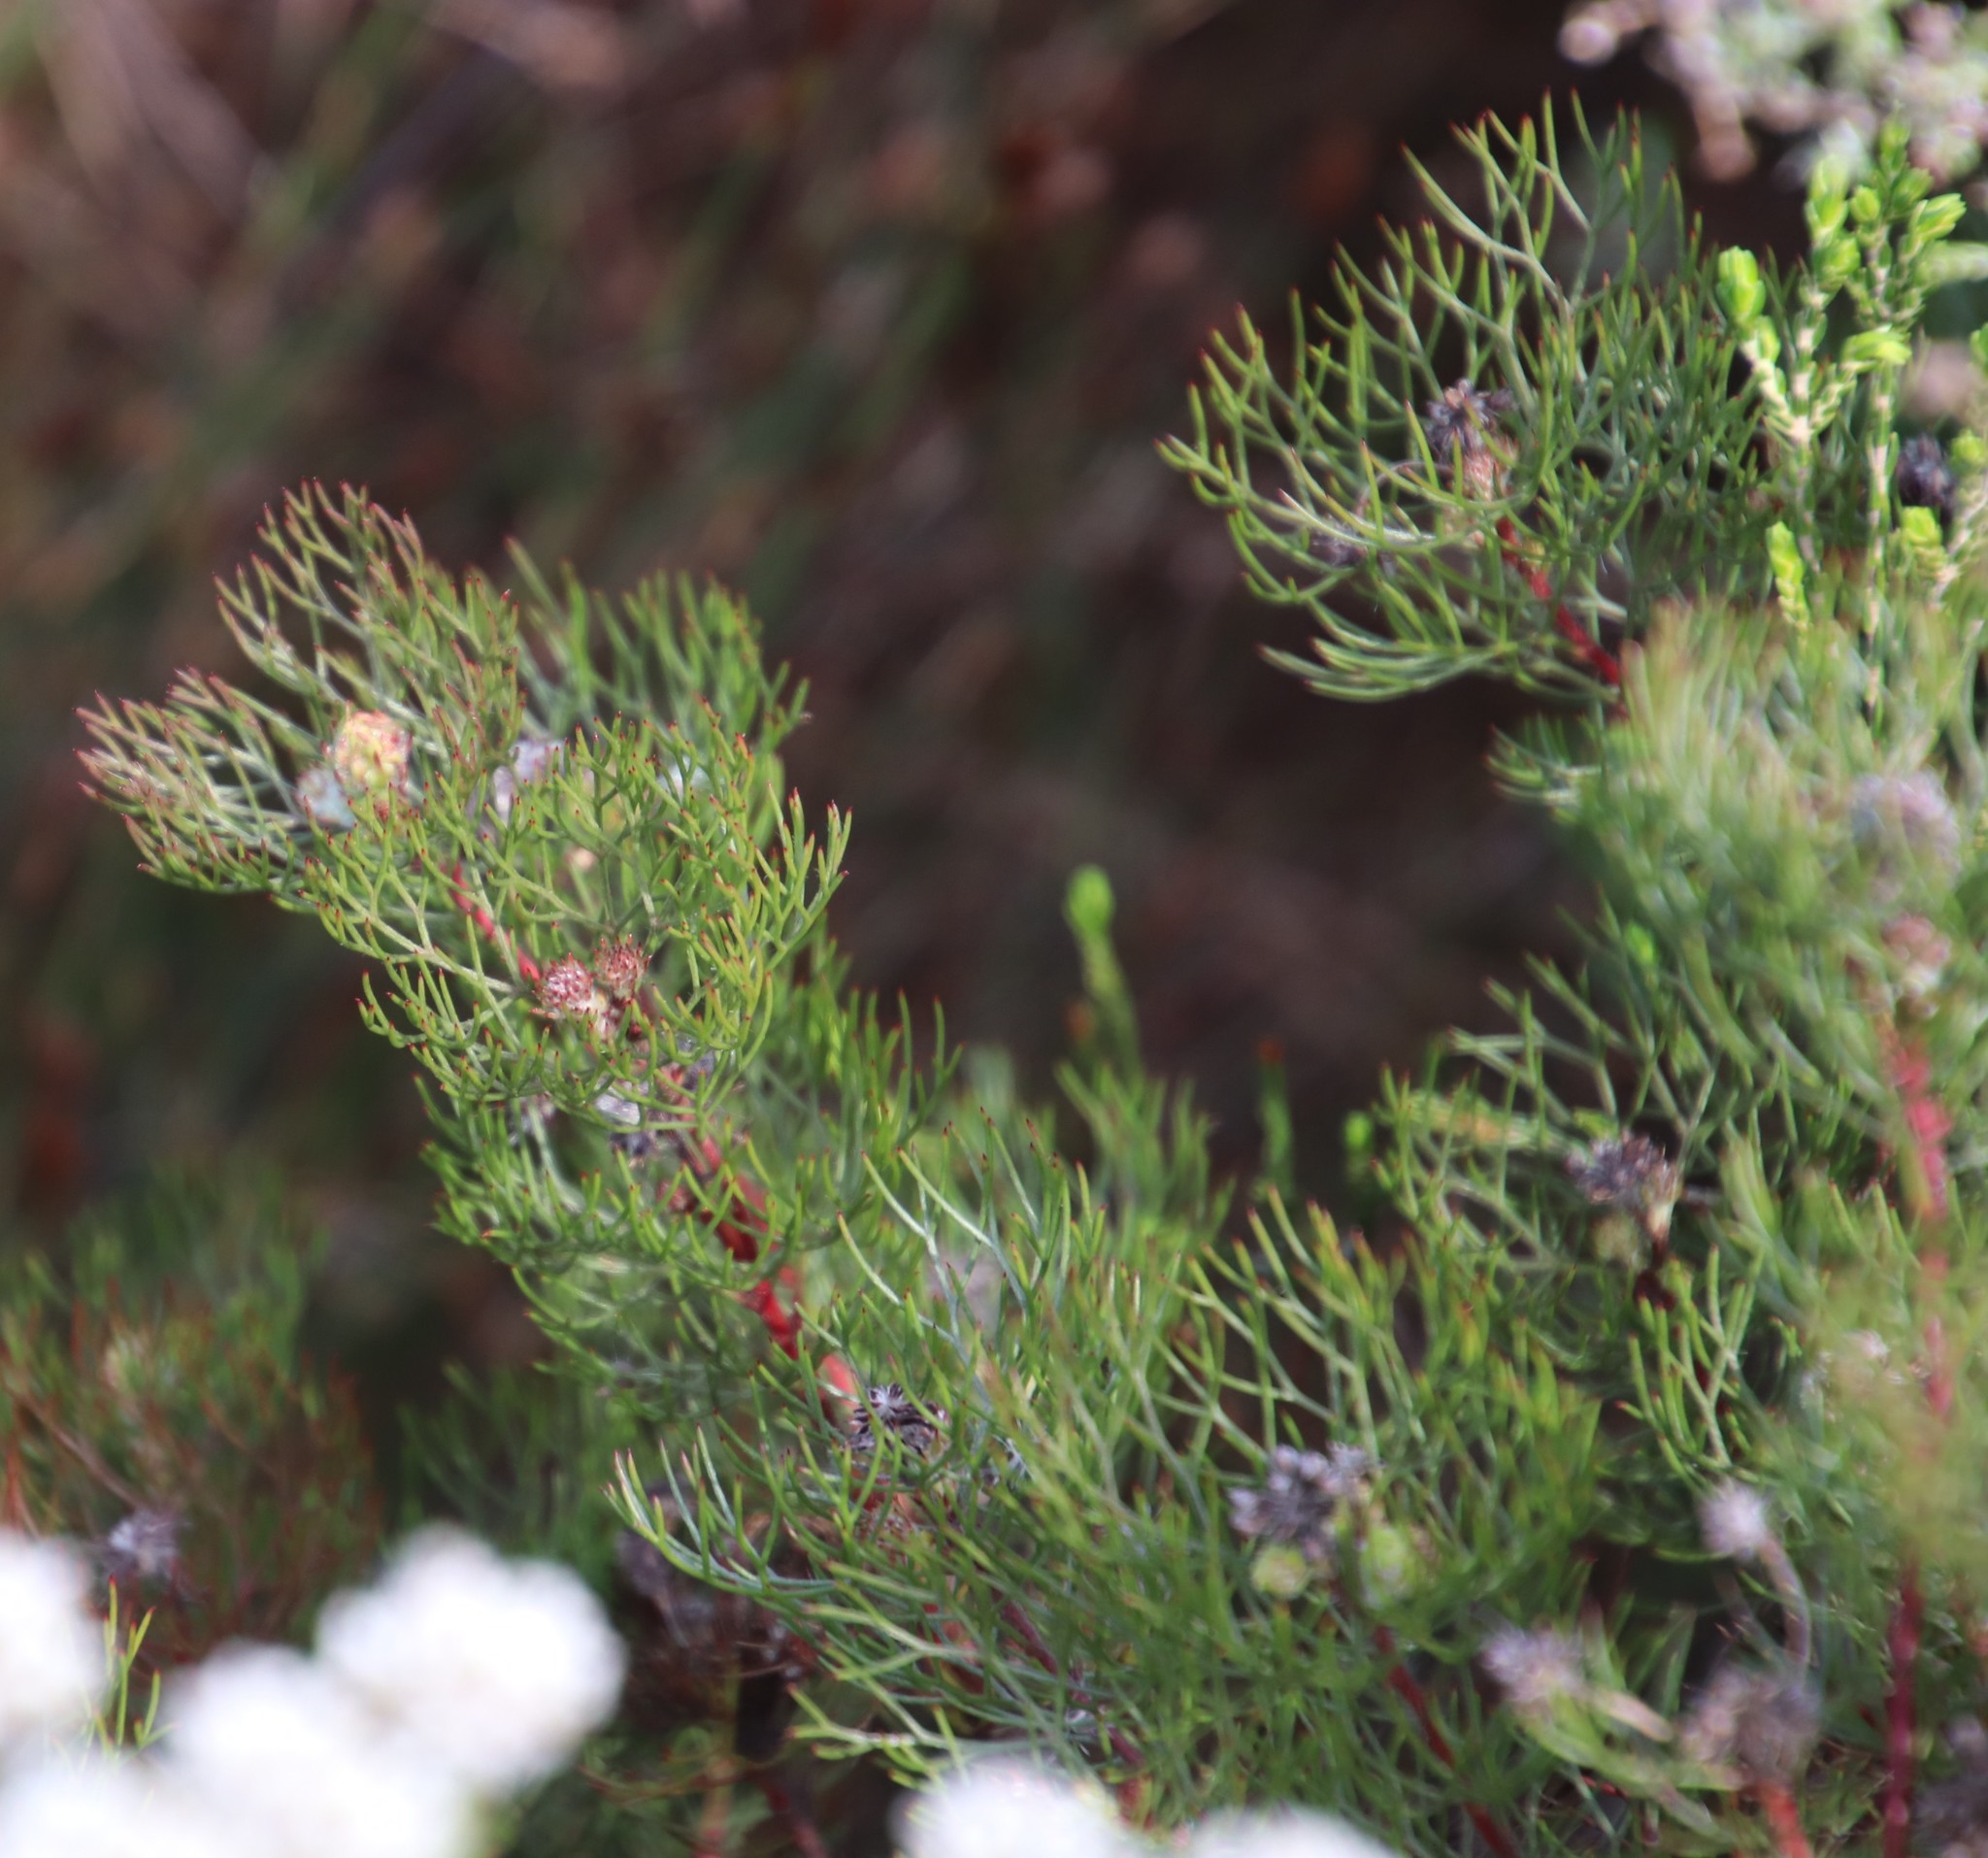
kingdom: Plantae
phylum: Tracheophyta
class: Magnoliopsida
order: Proteales
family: Proteaceae
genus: Serruria
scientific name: Serruria fasciflora
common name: Common pin spiderhead
